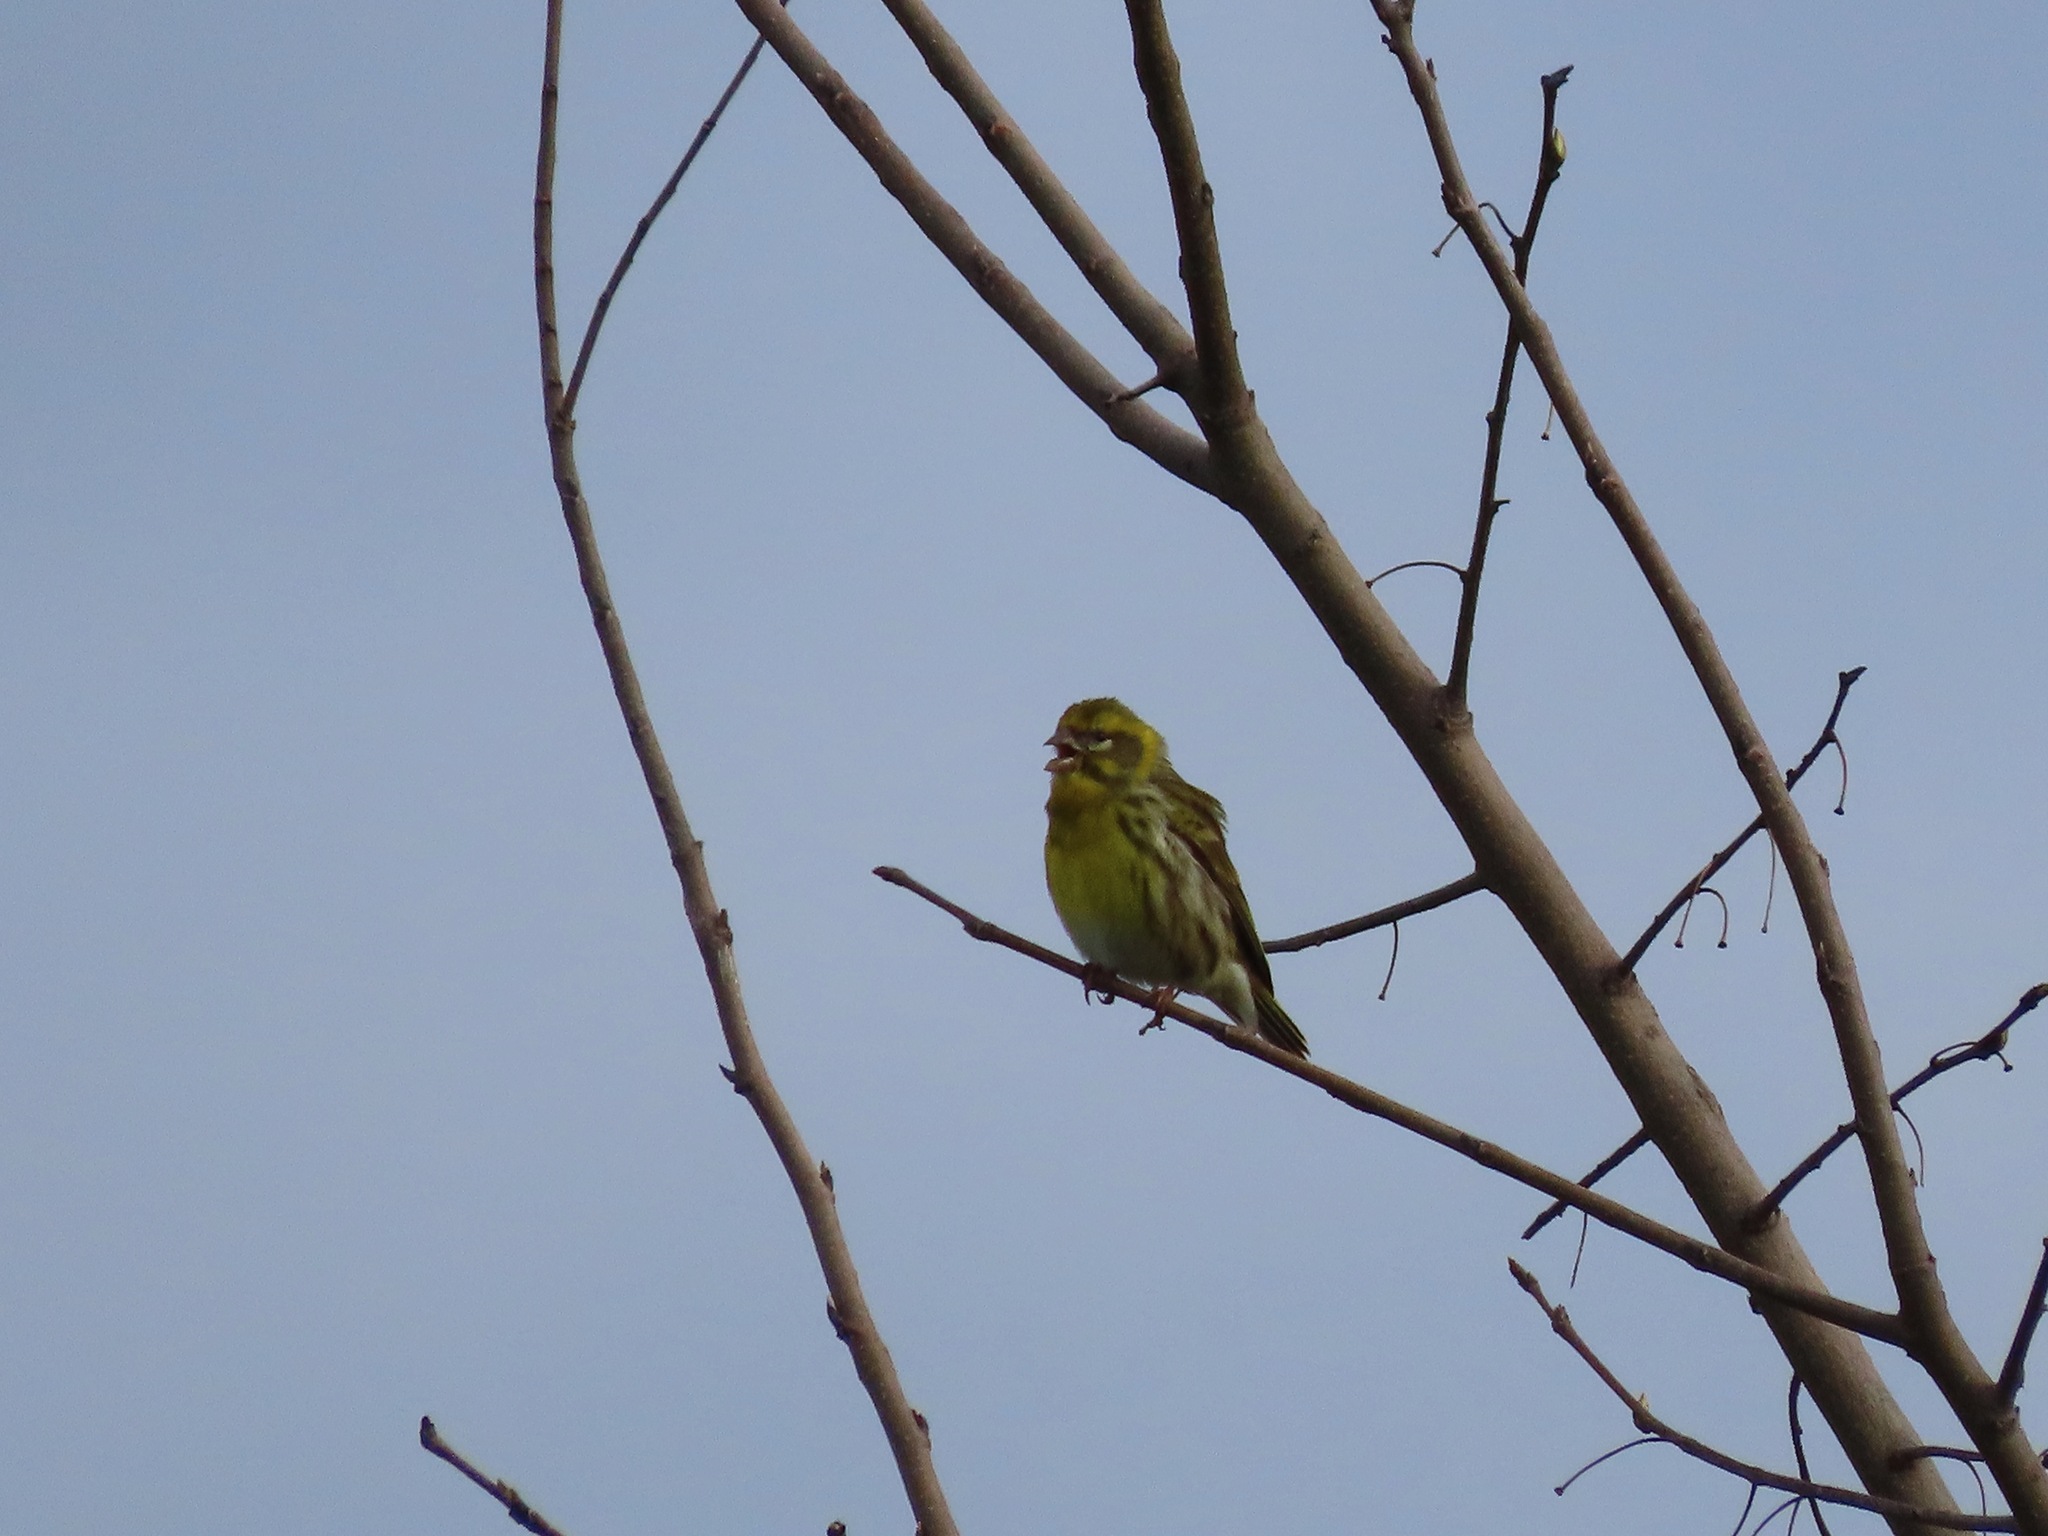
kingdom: Animalia
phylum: Chordata
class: Aves
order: Passeriformes
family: Fringillidae
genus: Serinus
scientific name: Serinus serinus
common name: European serin
